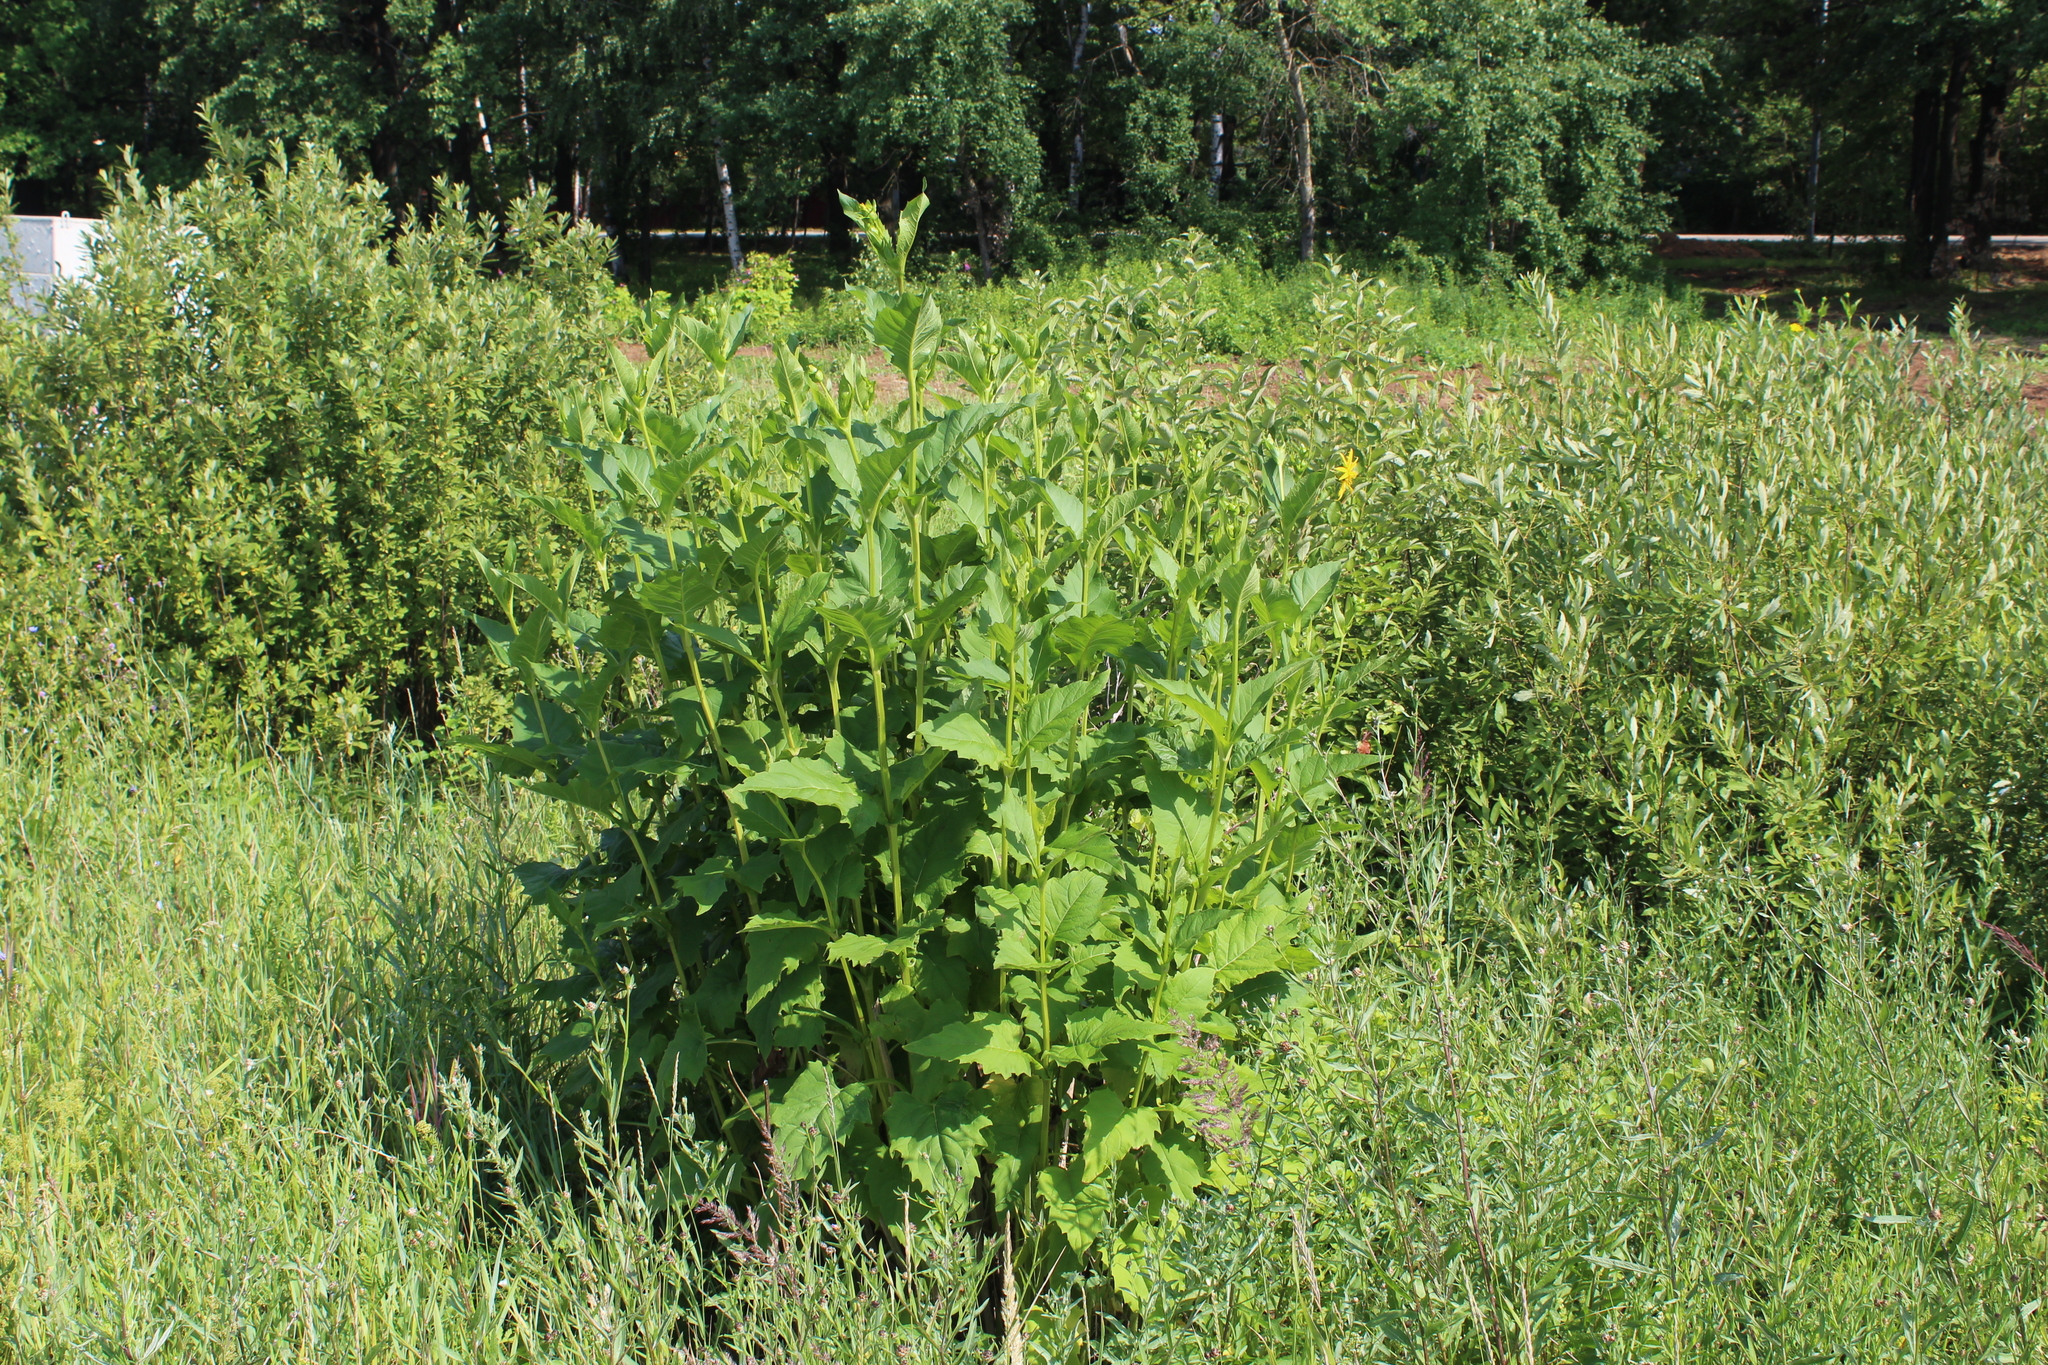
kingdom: Plantae
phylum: Tracheophyta
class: Magnoliopsida
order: Asterales
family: Asteraceae
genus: Silphium
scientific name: Silphium perfoliatum
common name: Cup-plant
